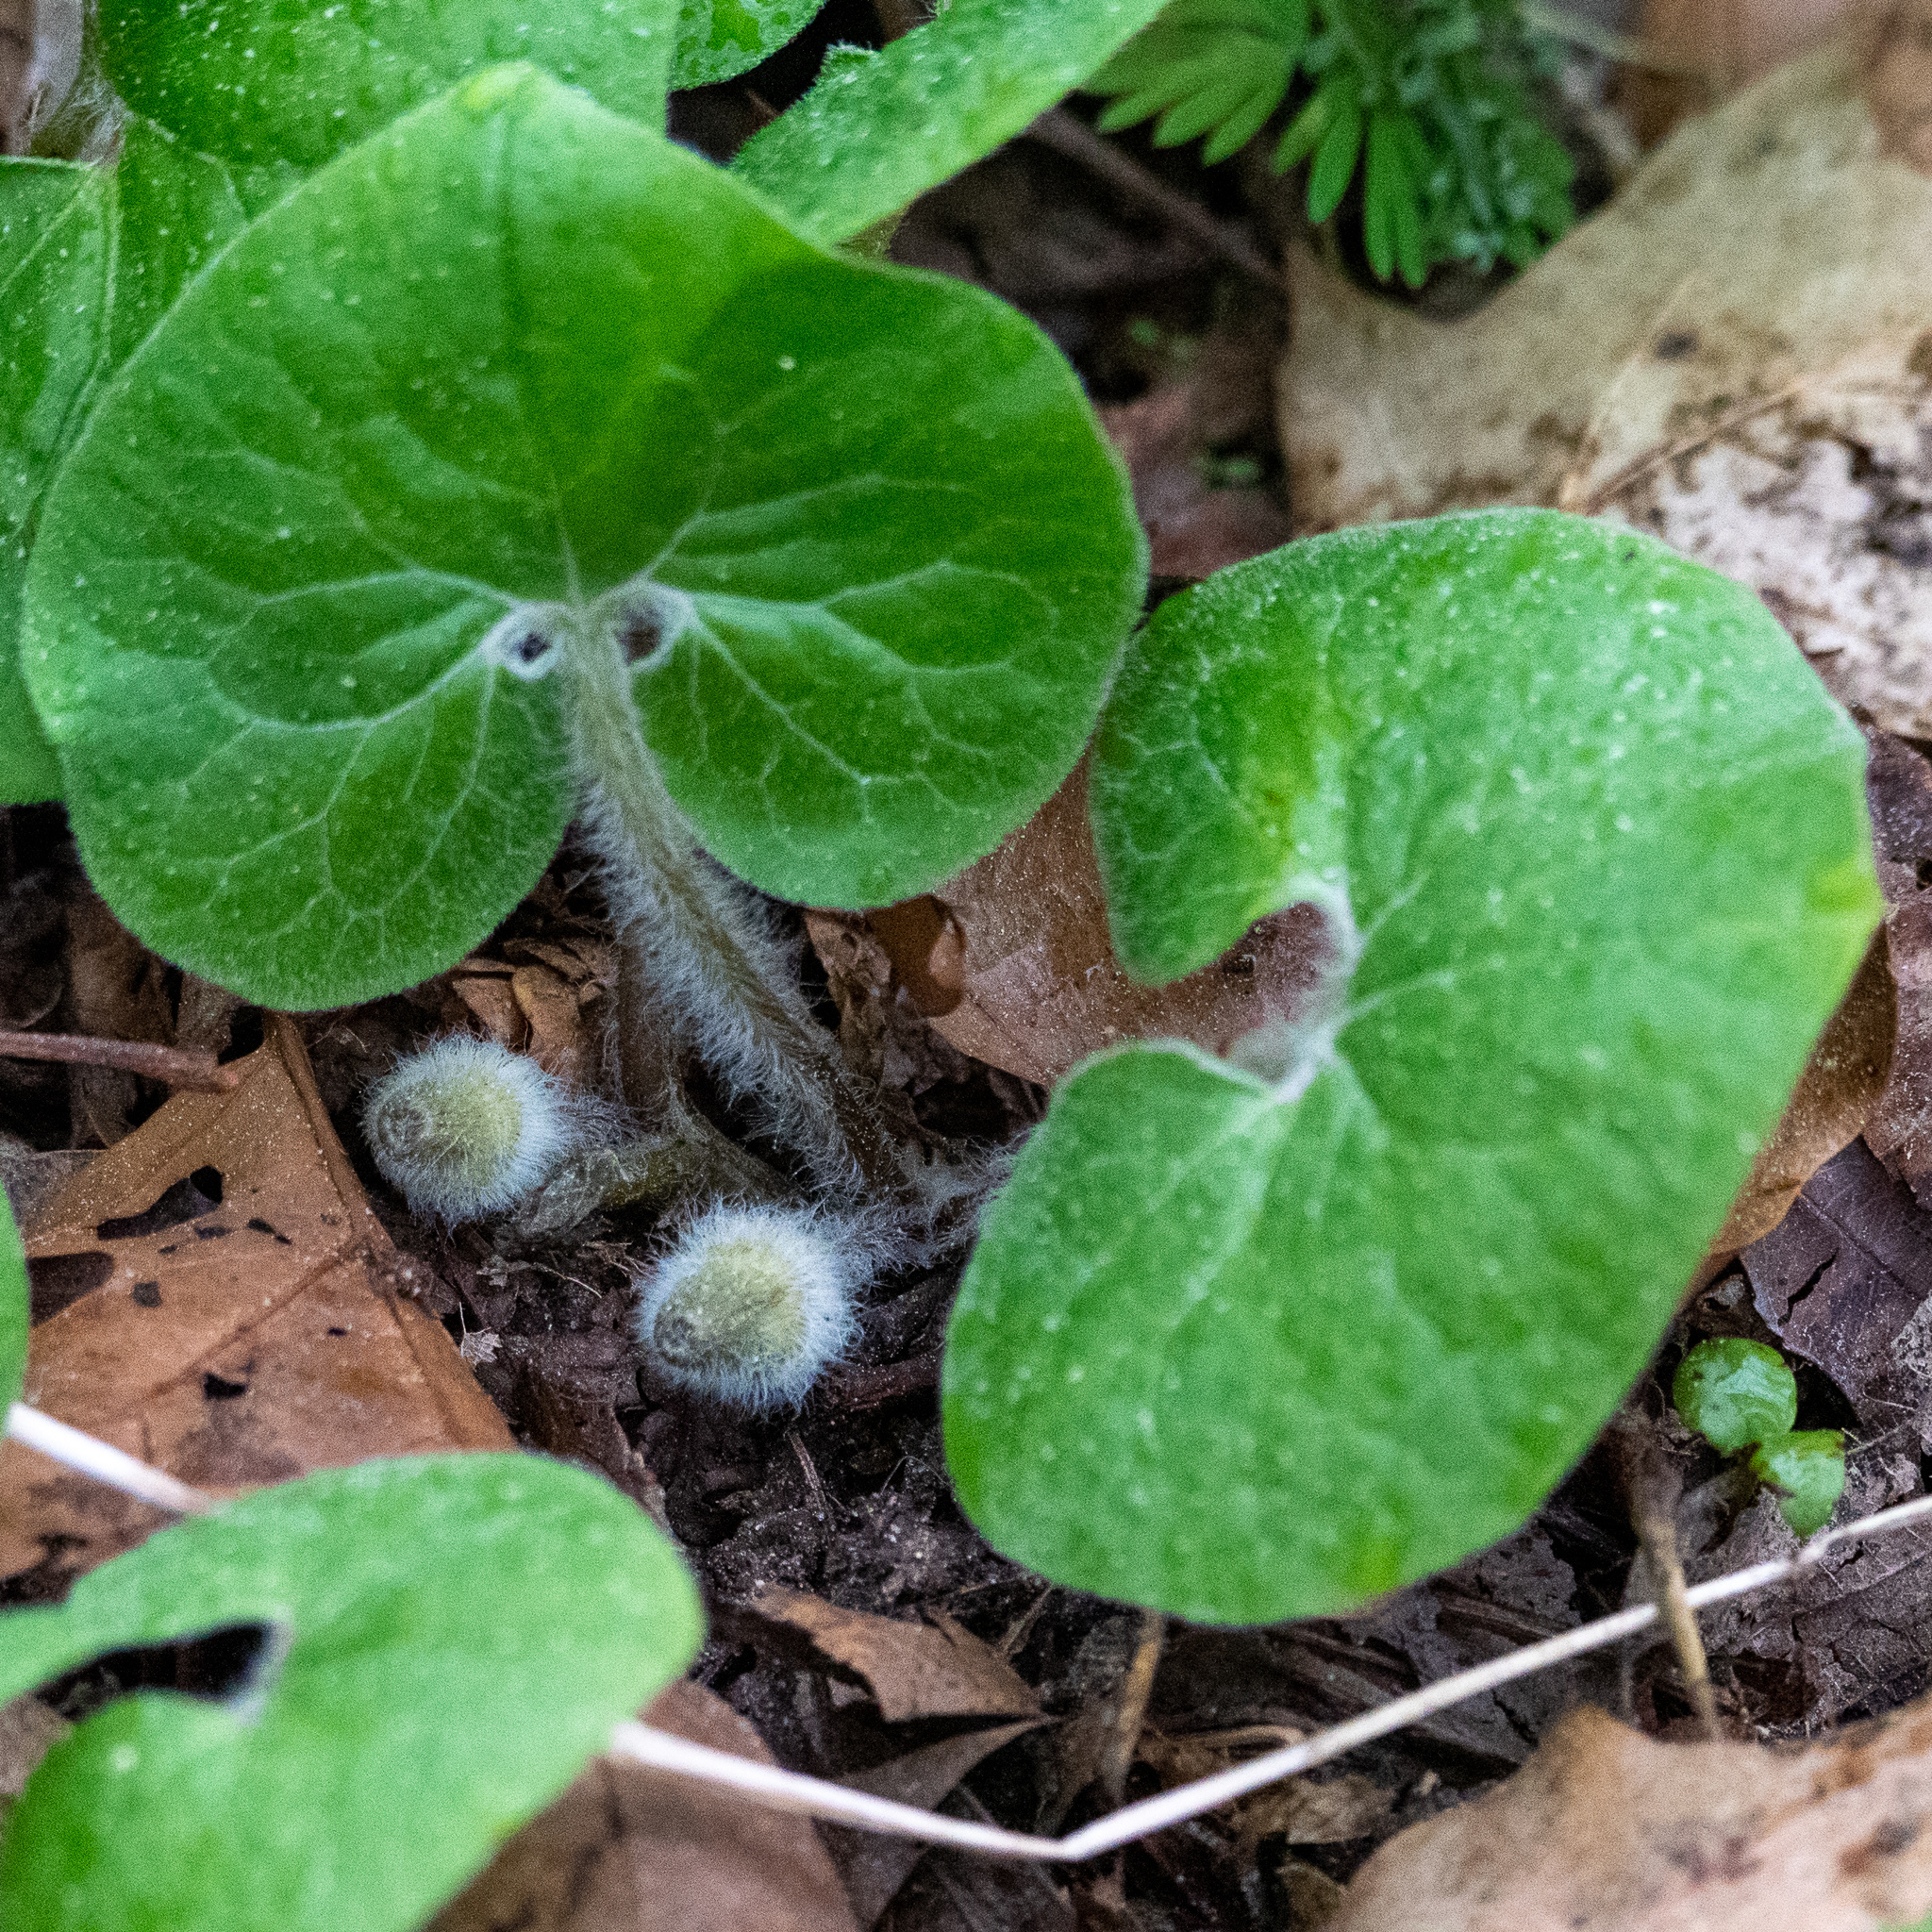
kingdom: Plantae
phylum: Tracheophyta
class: Magnoliopsida
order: Piperales
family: Aristolochiaceae
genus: Asarum
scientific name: Asarum canadense
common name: Wild ginger
